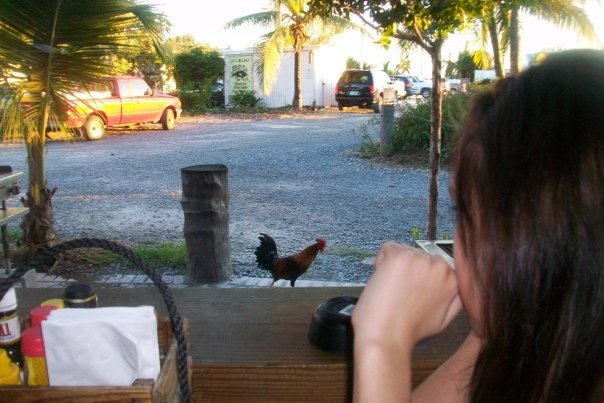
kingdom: Animalia
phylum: Chordata
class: Aves
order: Galliformes
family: Phasianidae
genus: Gallus
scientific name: Gallus gallus
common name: Red junglefowl
